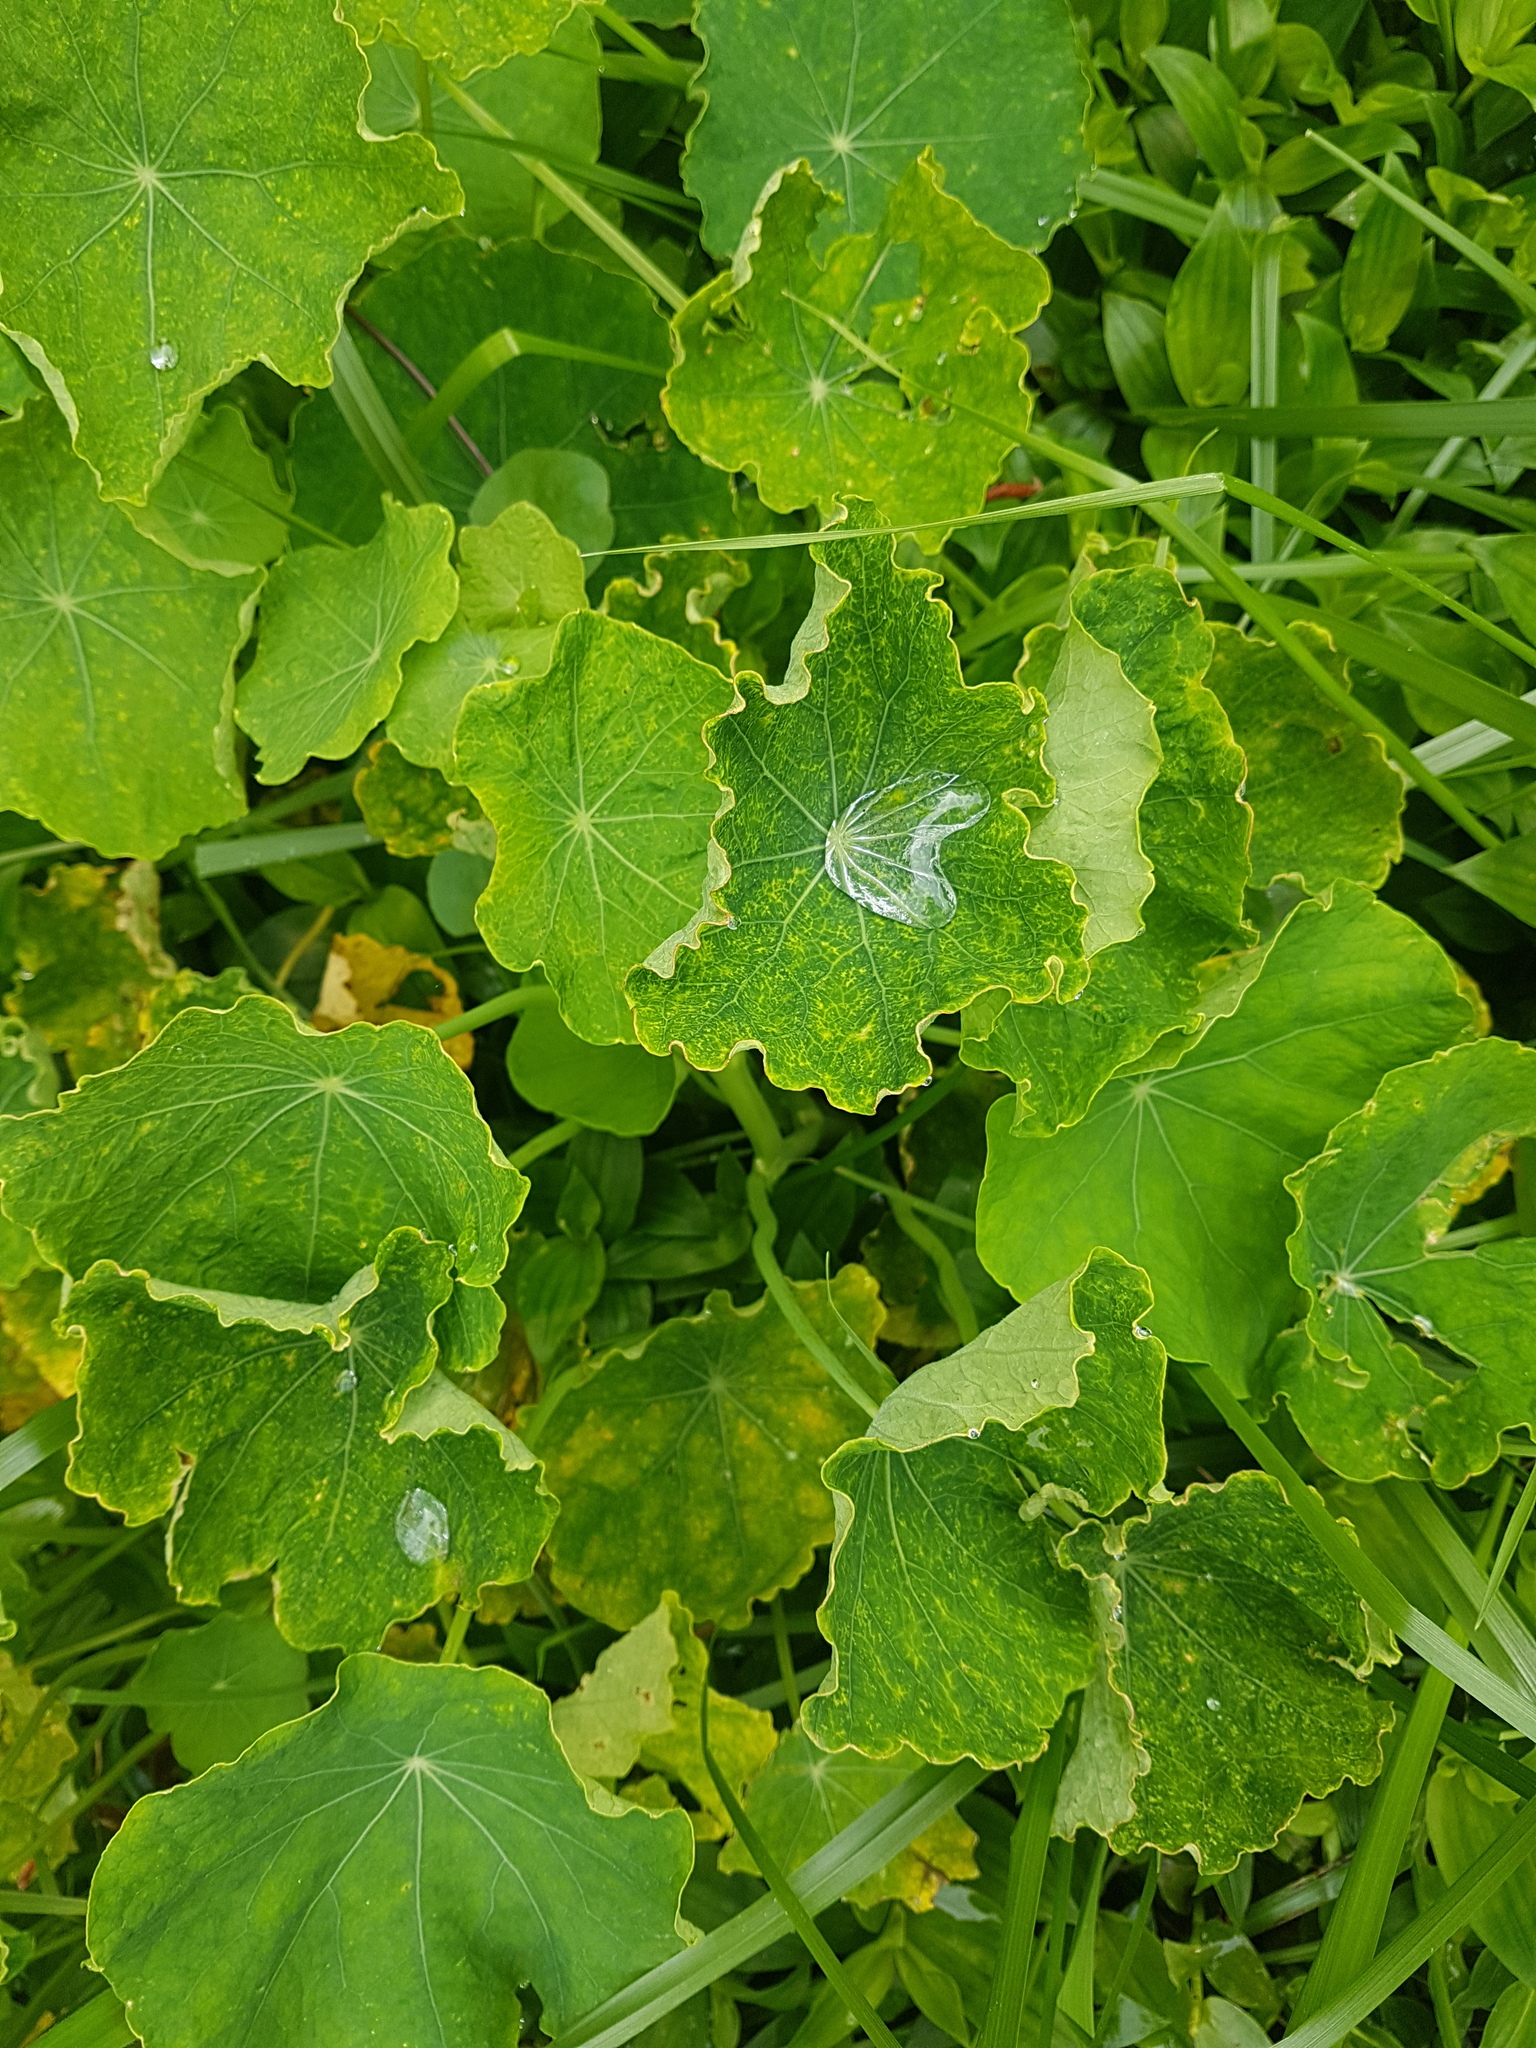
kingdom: Plantae
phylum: Tracheophyta
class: Magnoliopsida
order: Brassicales
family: Tropaeolaceae
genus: Tropaeolum
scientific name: Tropaeolum majus
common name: Nasturtium
